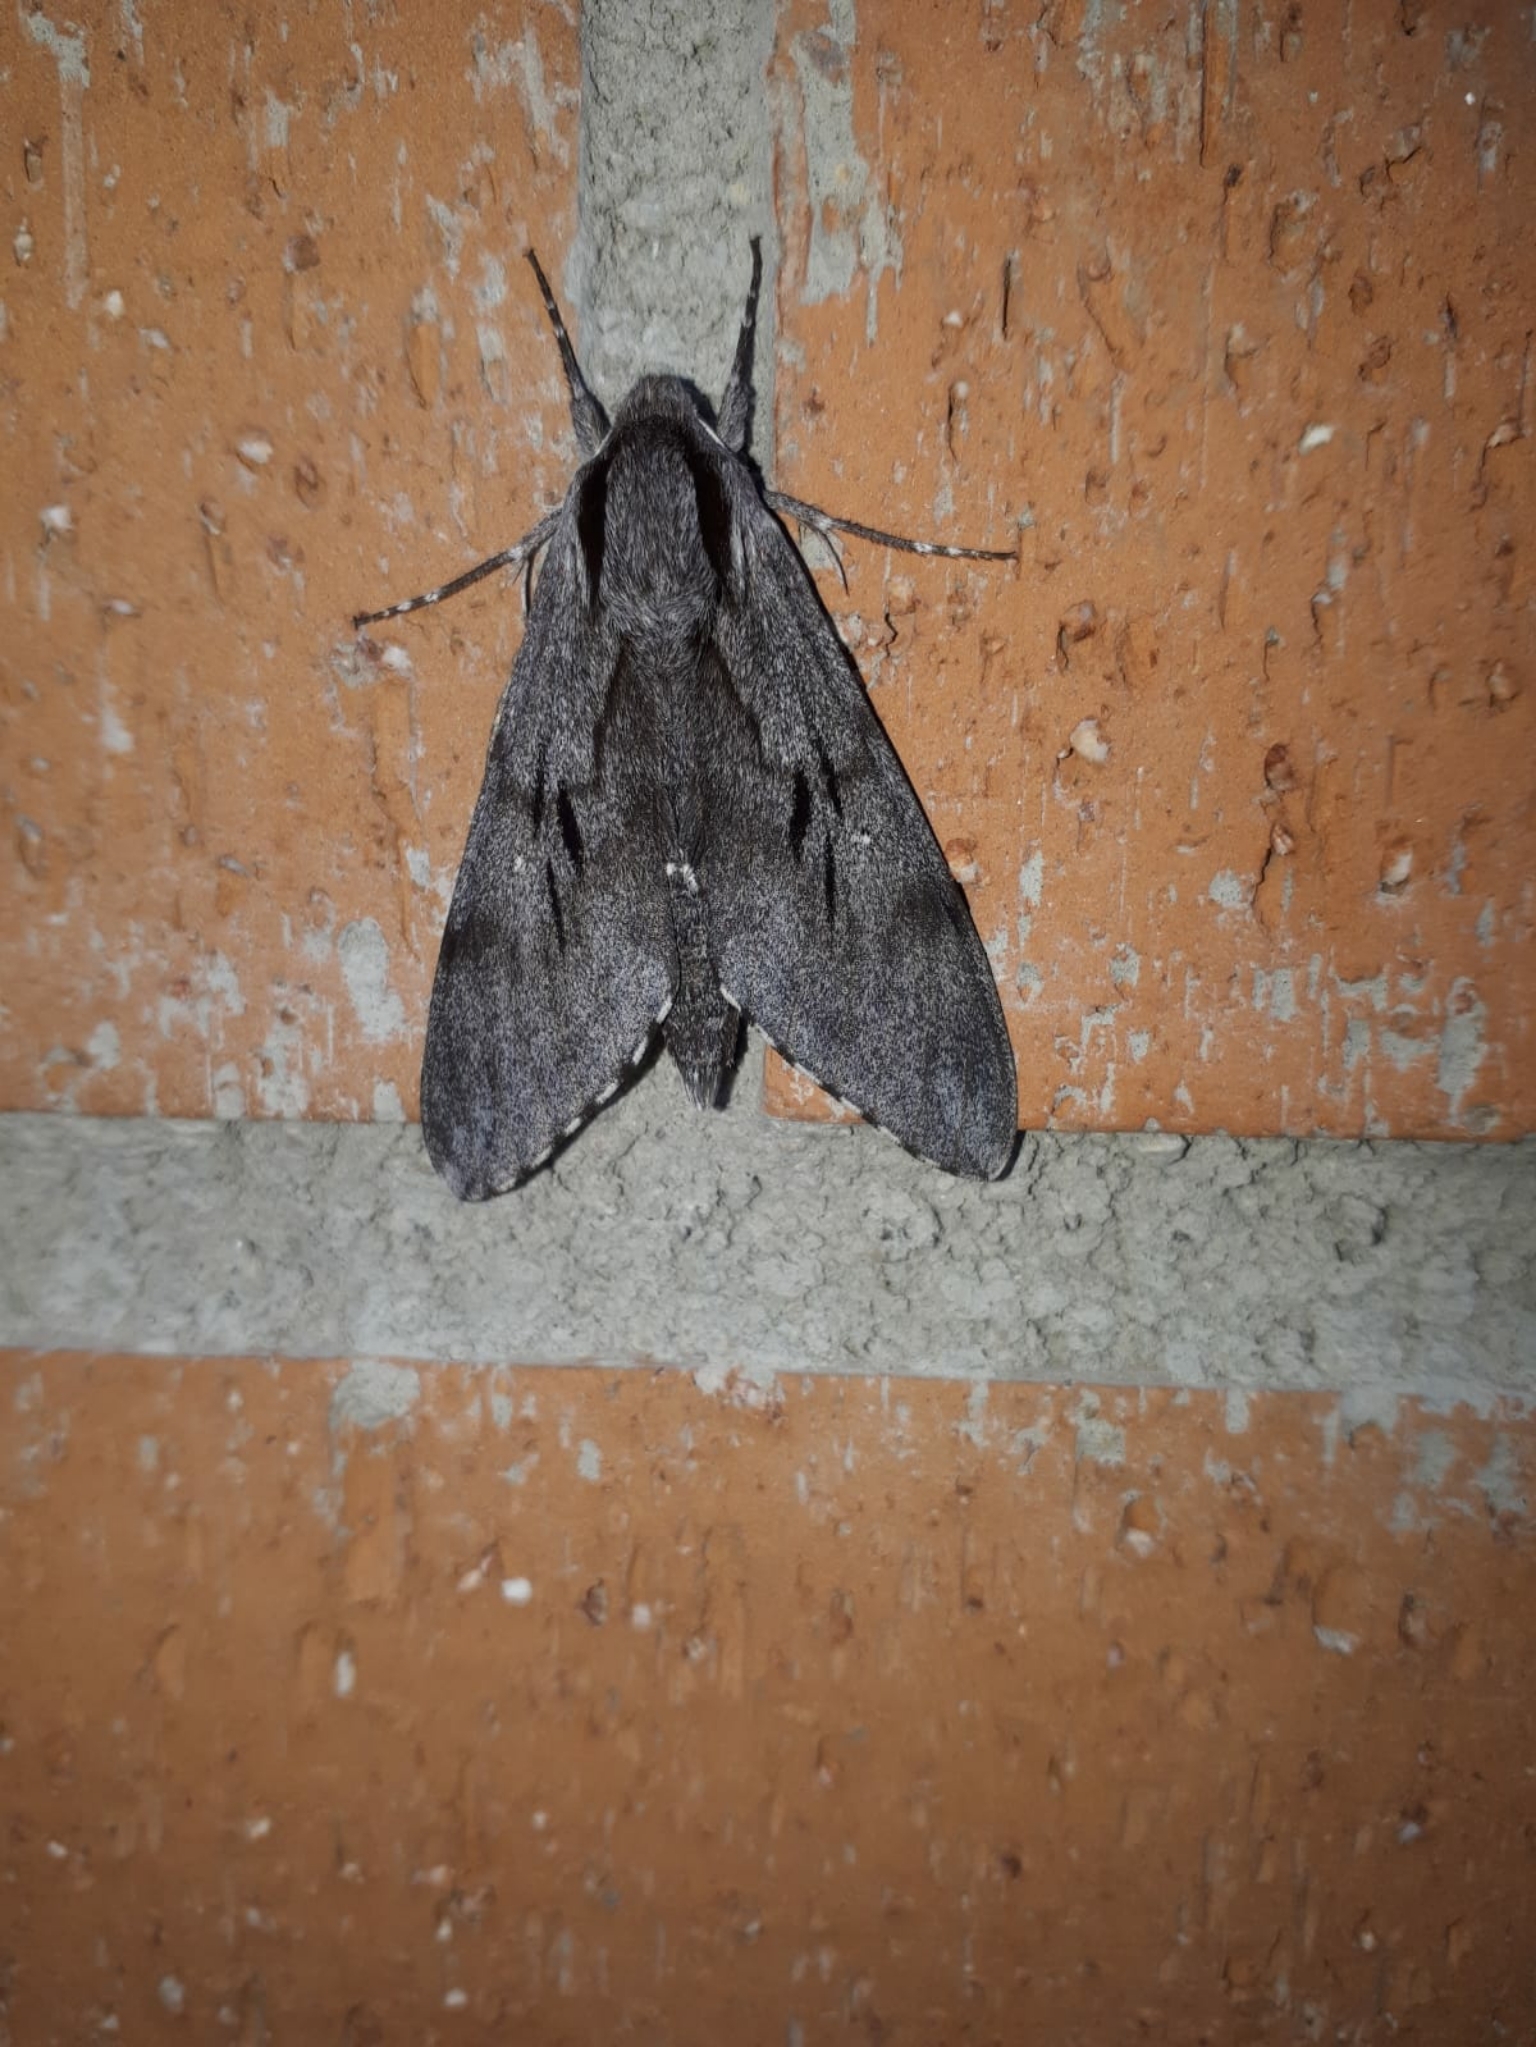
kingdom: Animalia
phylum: Arthropoda
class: Insecta
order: Lepidoptera
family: Sphingidae
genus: Sphinx
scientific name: Sphinx maurorum
